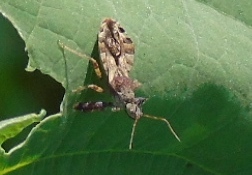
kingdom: Animalia
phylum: Arthropoda
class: Insecta
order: Hemiptera
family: Reduviidae
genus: Sinea
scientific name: Sinea
